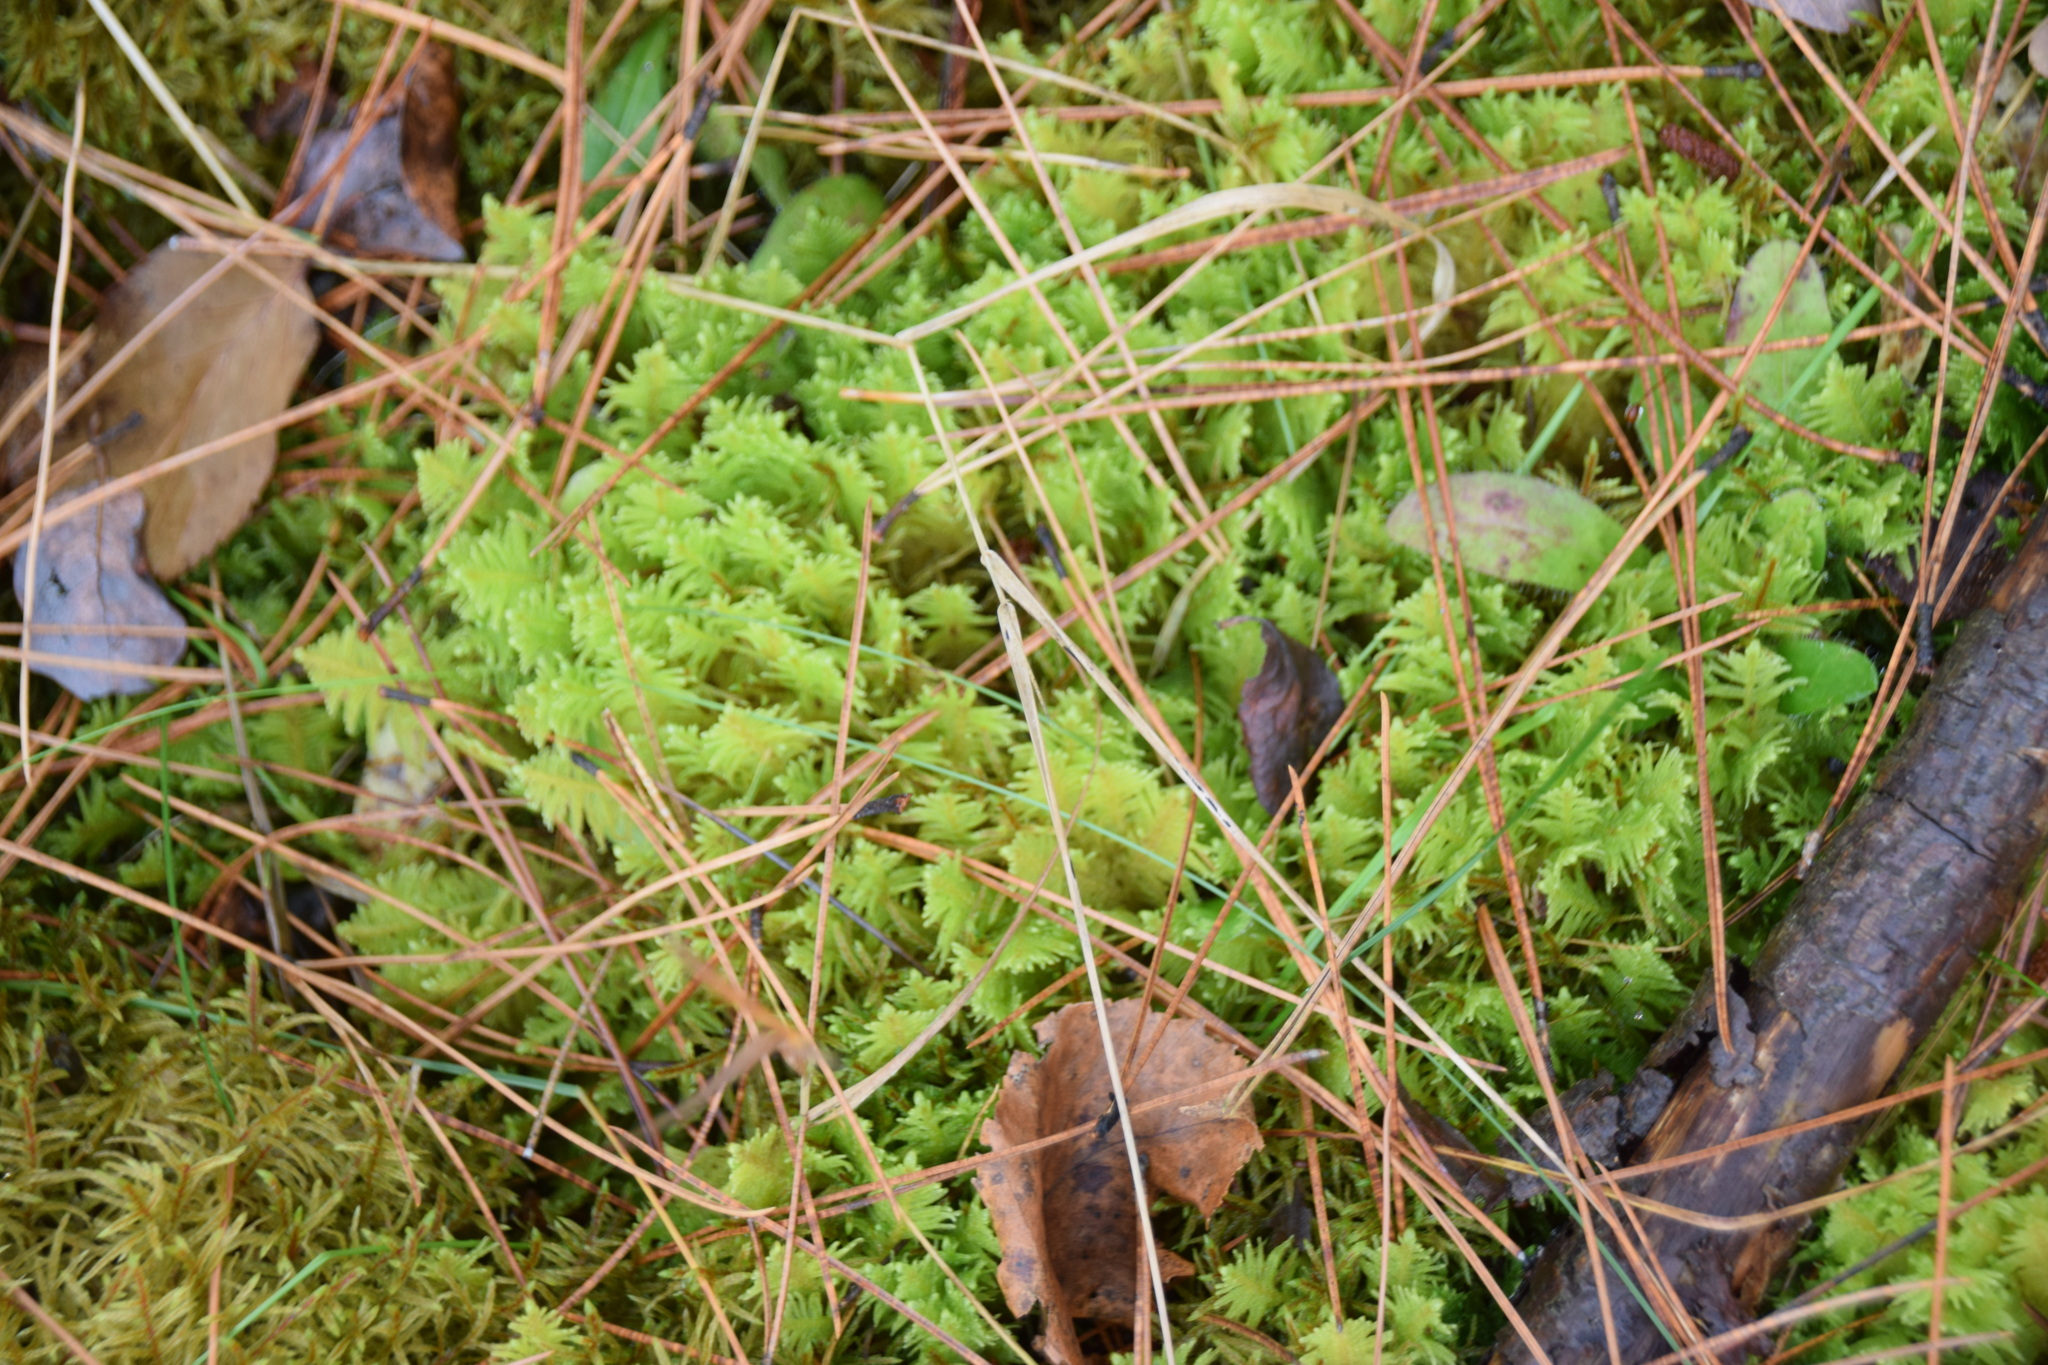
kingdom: Plantae
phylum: Bryophyta
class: Bryopsida
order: Hypnales
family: Pylaisiaceae
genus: Ptilium
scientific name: Ptilium crista-castrensis
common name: Knight's plume moss
